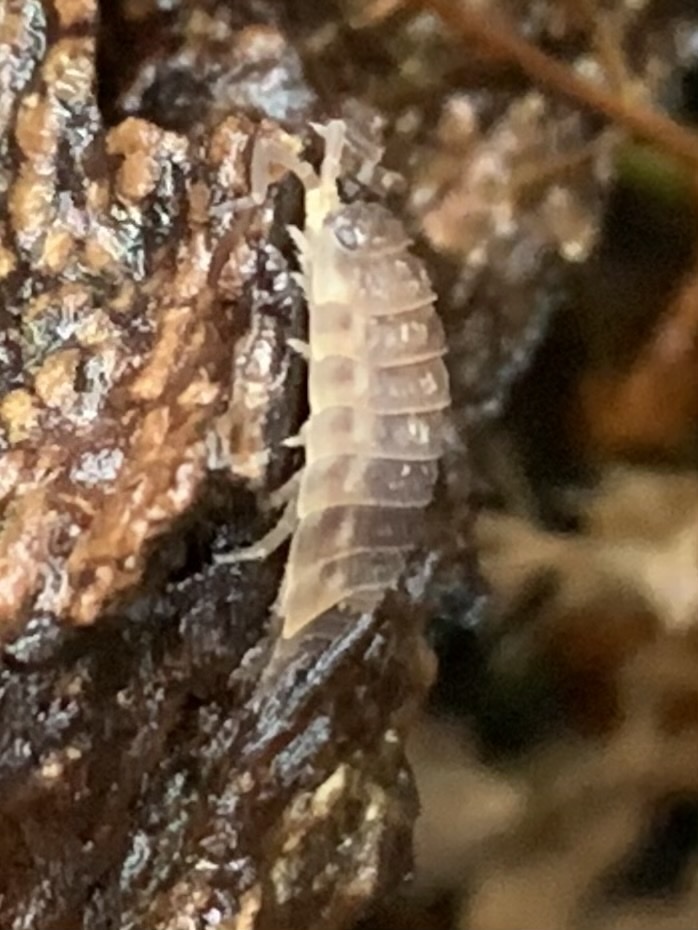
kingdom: Animalia
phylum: Arthropoda
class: Malacostraca
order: Isopoda
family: Oniscidae
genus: Oniscus
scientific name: Oniscus asellus
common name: Common shiny woodlouse
